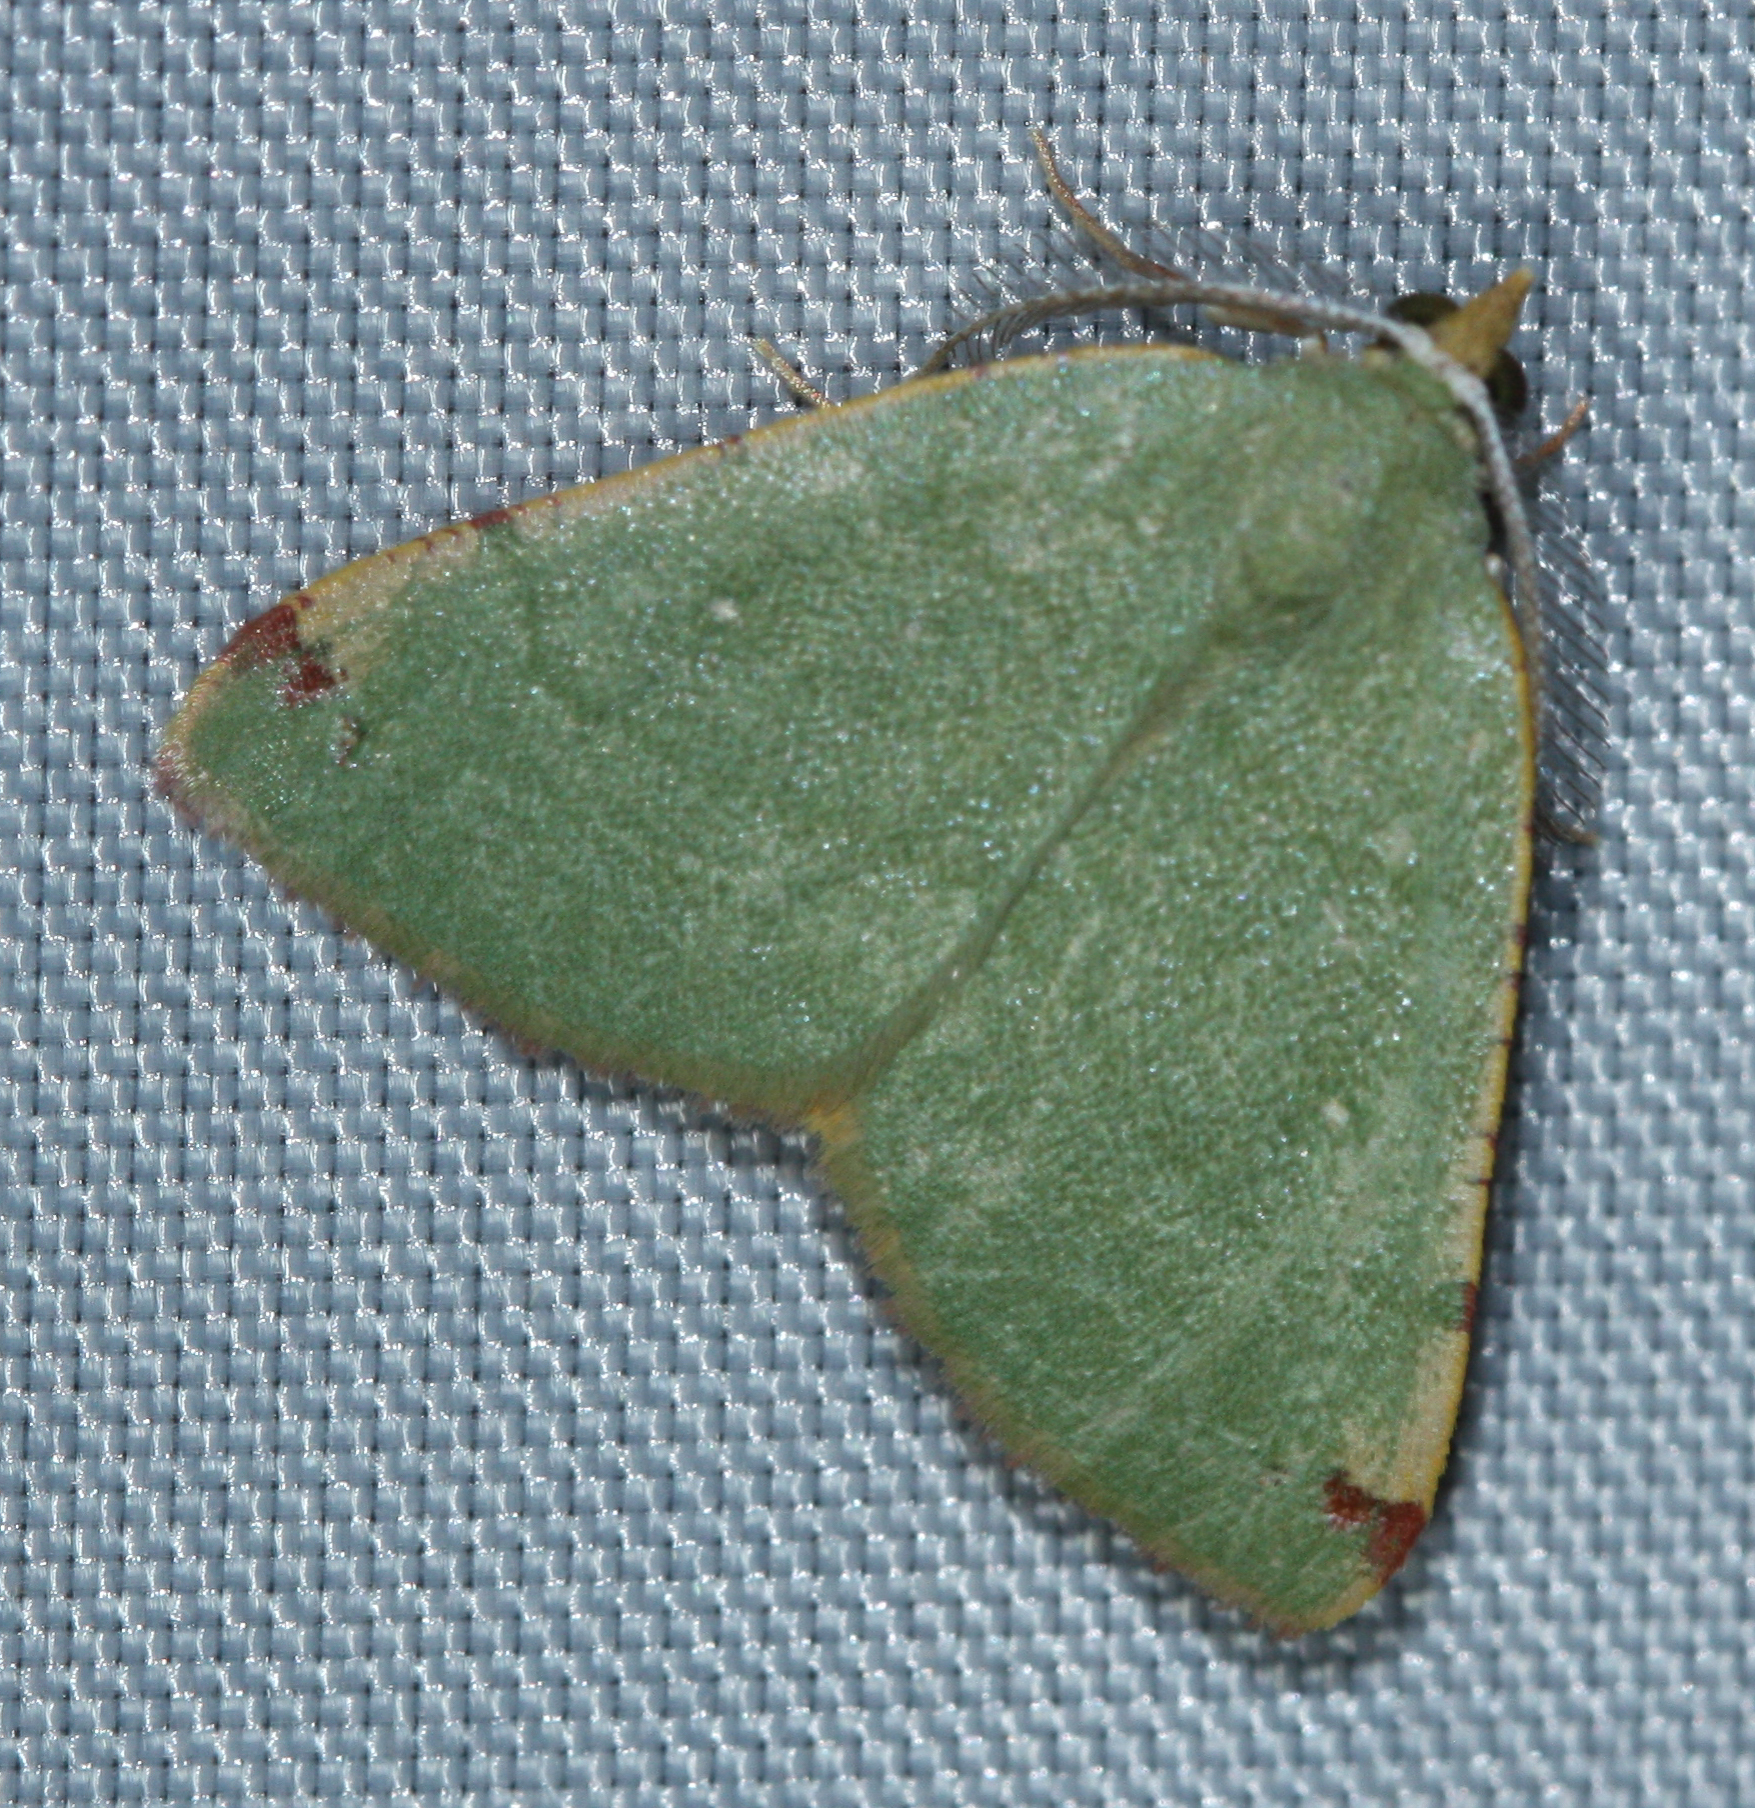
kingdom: Animalia
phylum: Arthropoda
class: Insecta
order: Lepidoptera
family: Geometridae
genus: Chloraspilates
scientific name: Chloraspilates bicoloraria
